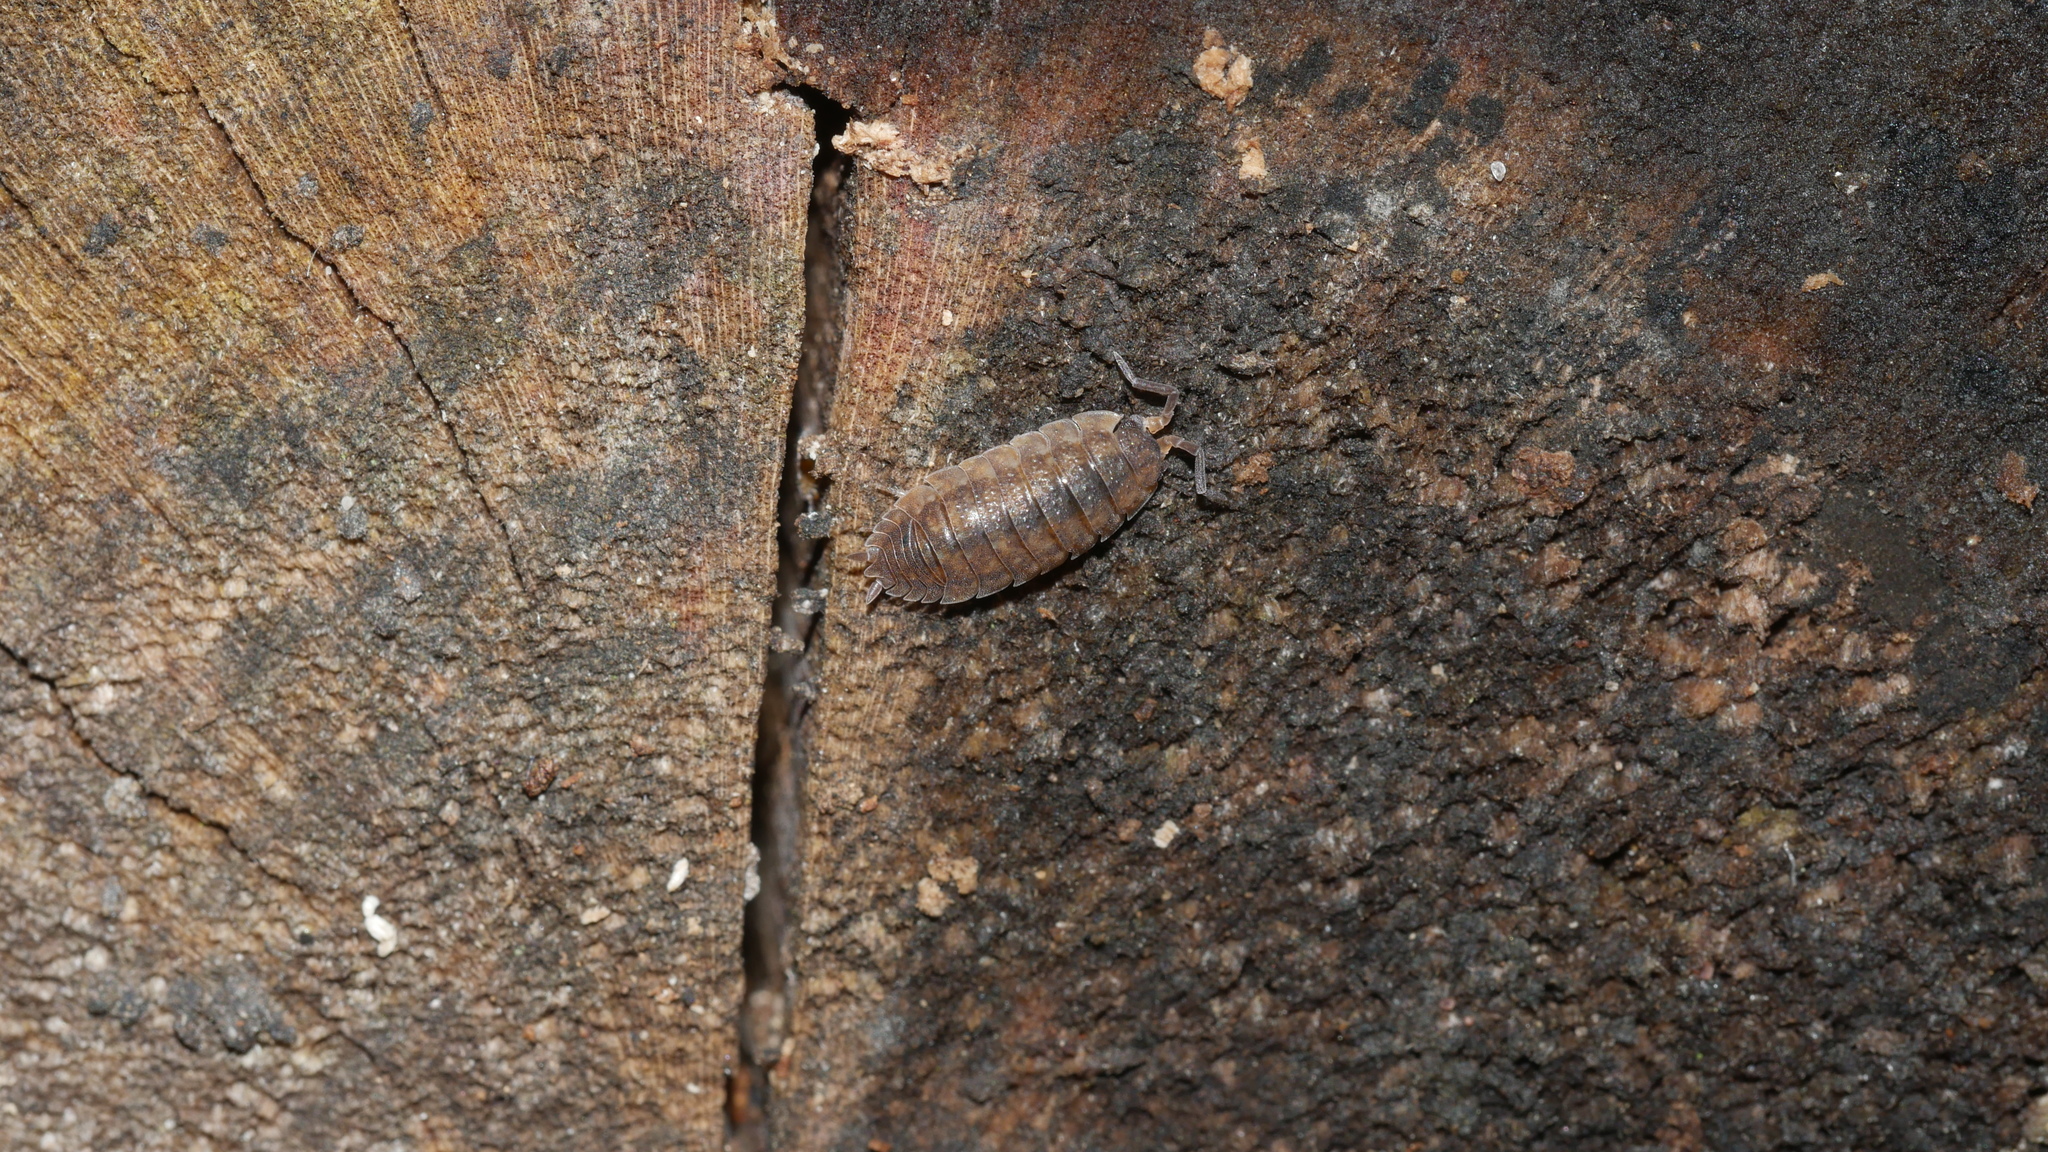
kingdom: Animalia
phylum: Arthropoda
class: Malacostraca
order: Isopoda
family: Porcellionidae
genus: Porcellio
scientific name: Porcellio scaber
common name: Common rough woodlouse
